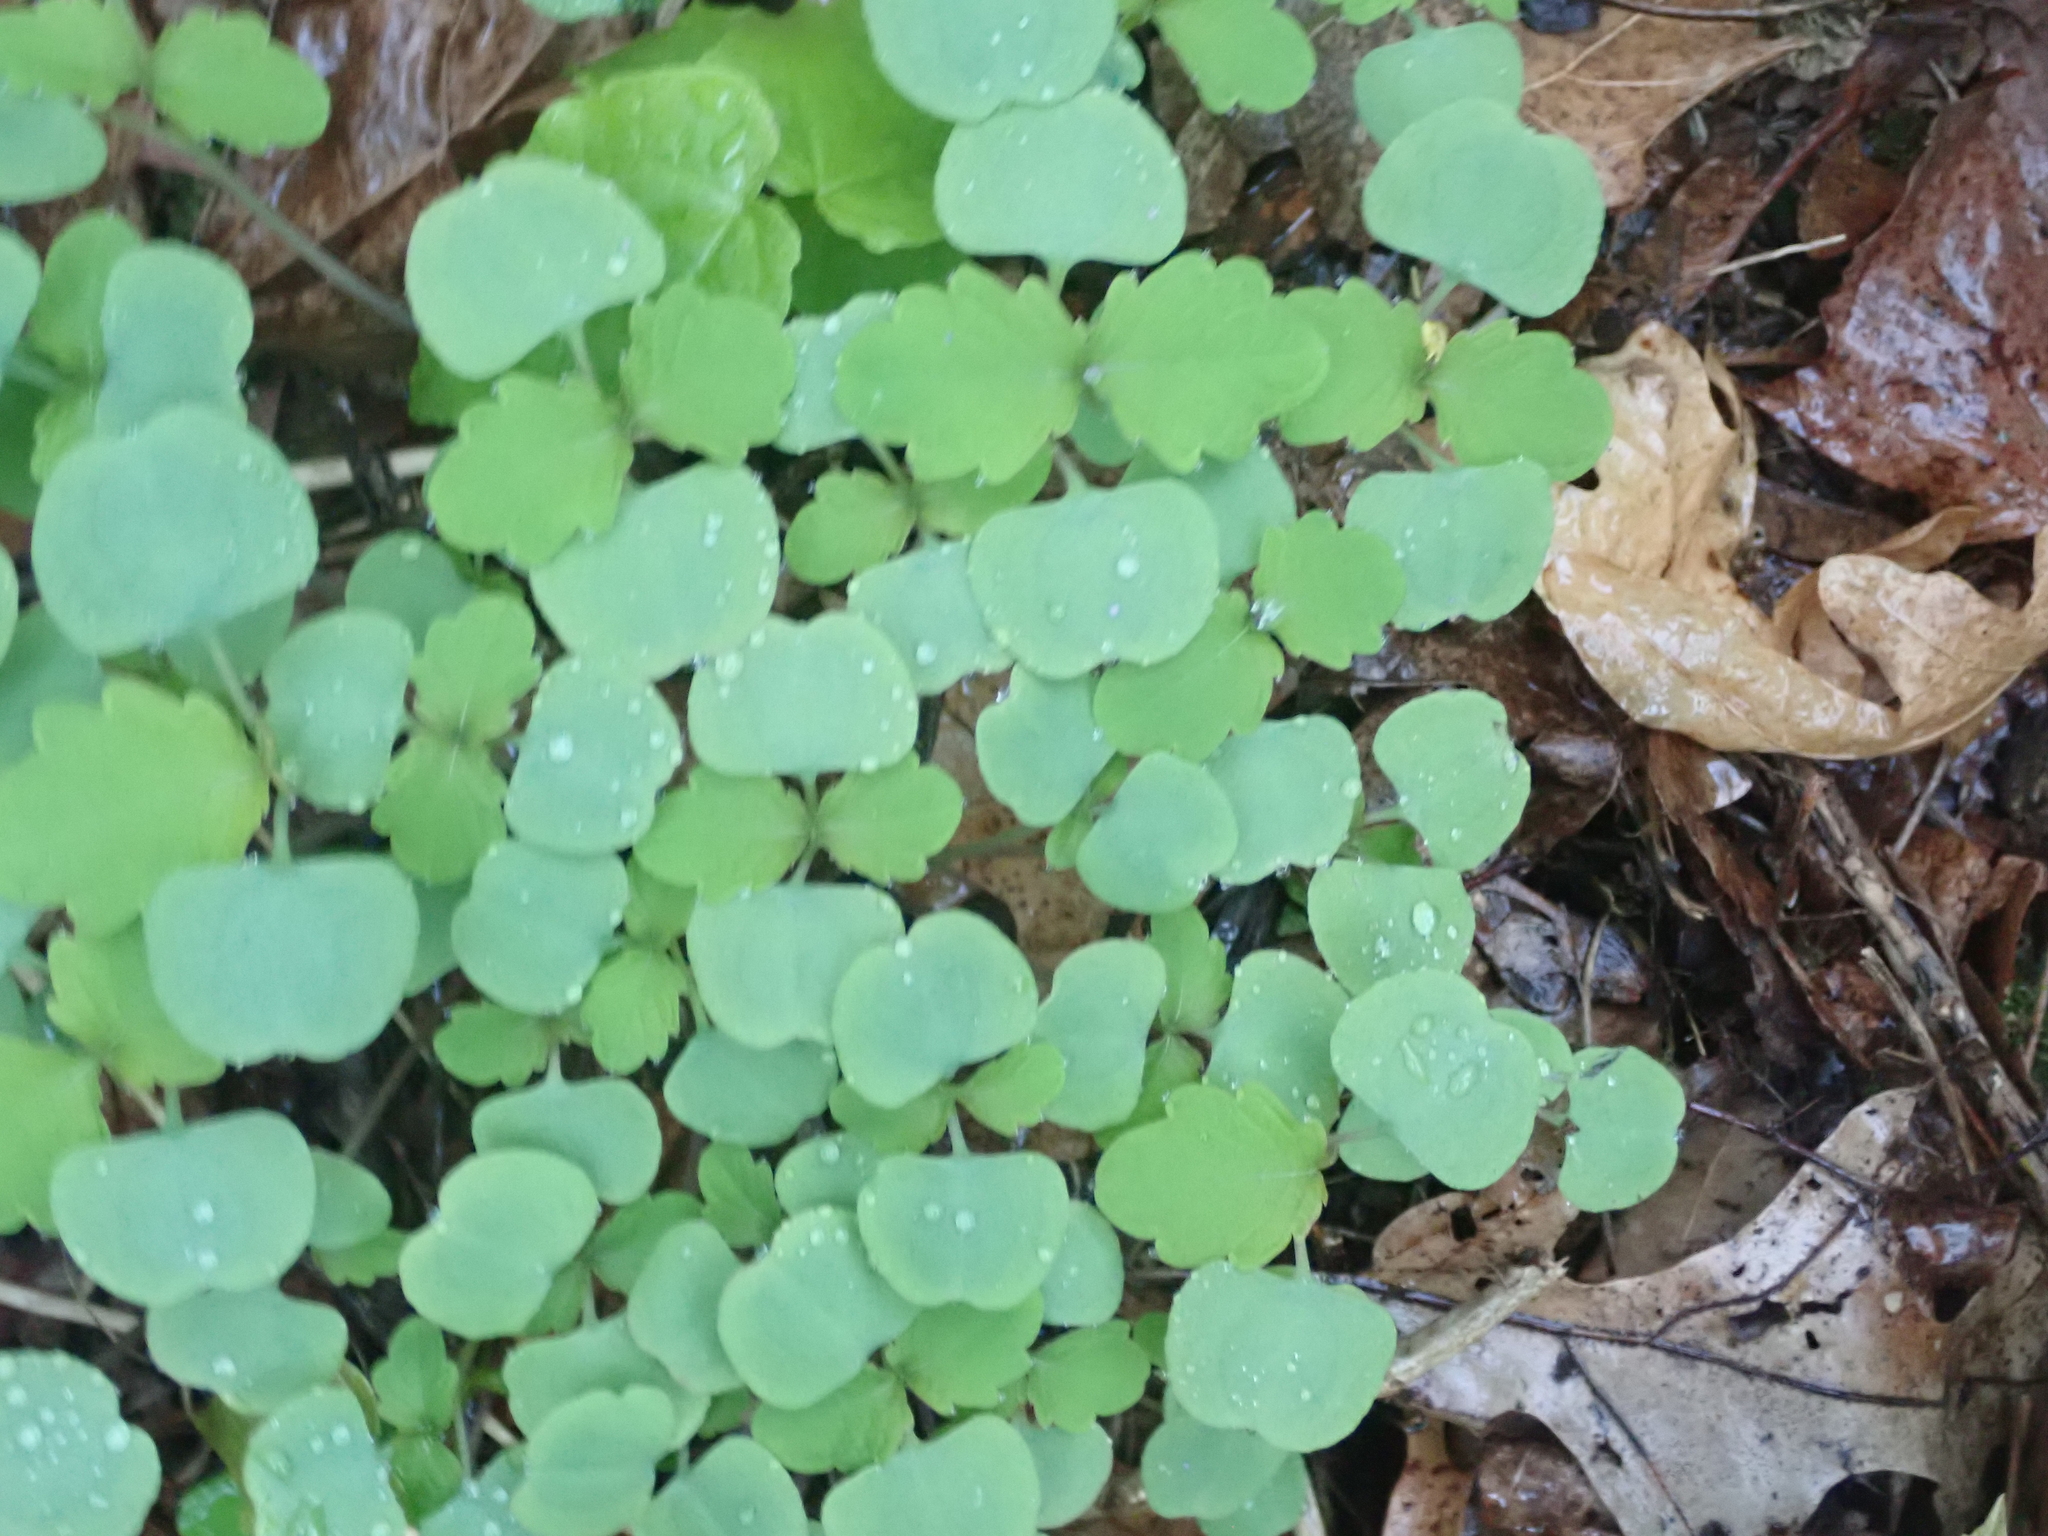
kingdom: Plantae
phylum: Tracheophyta
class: Magnoliopsida
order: Ericales
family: Balsaminaceae
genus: Impatiens
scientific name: Impatiens
